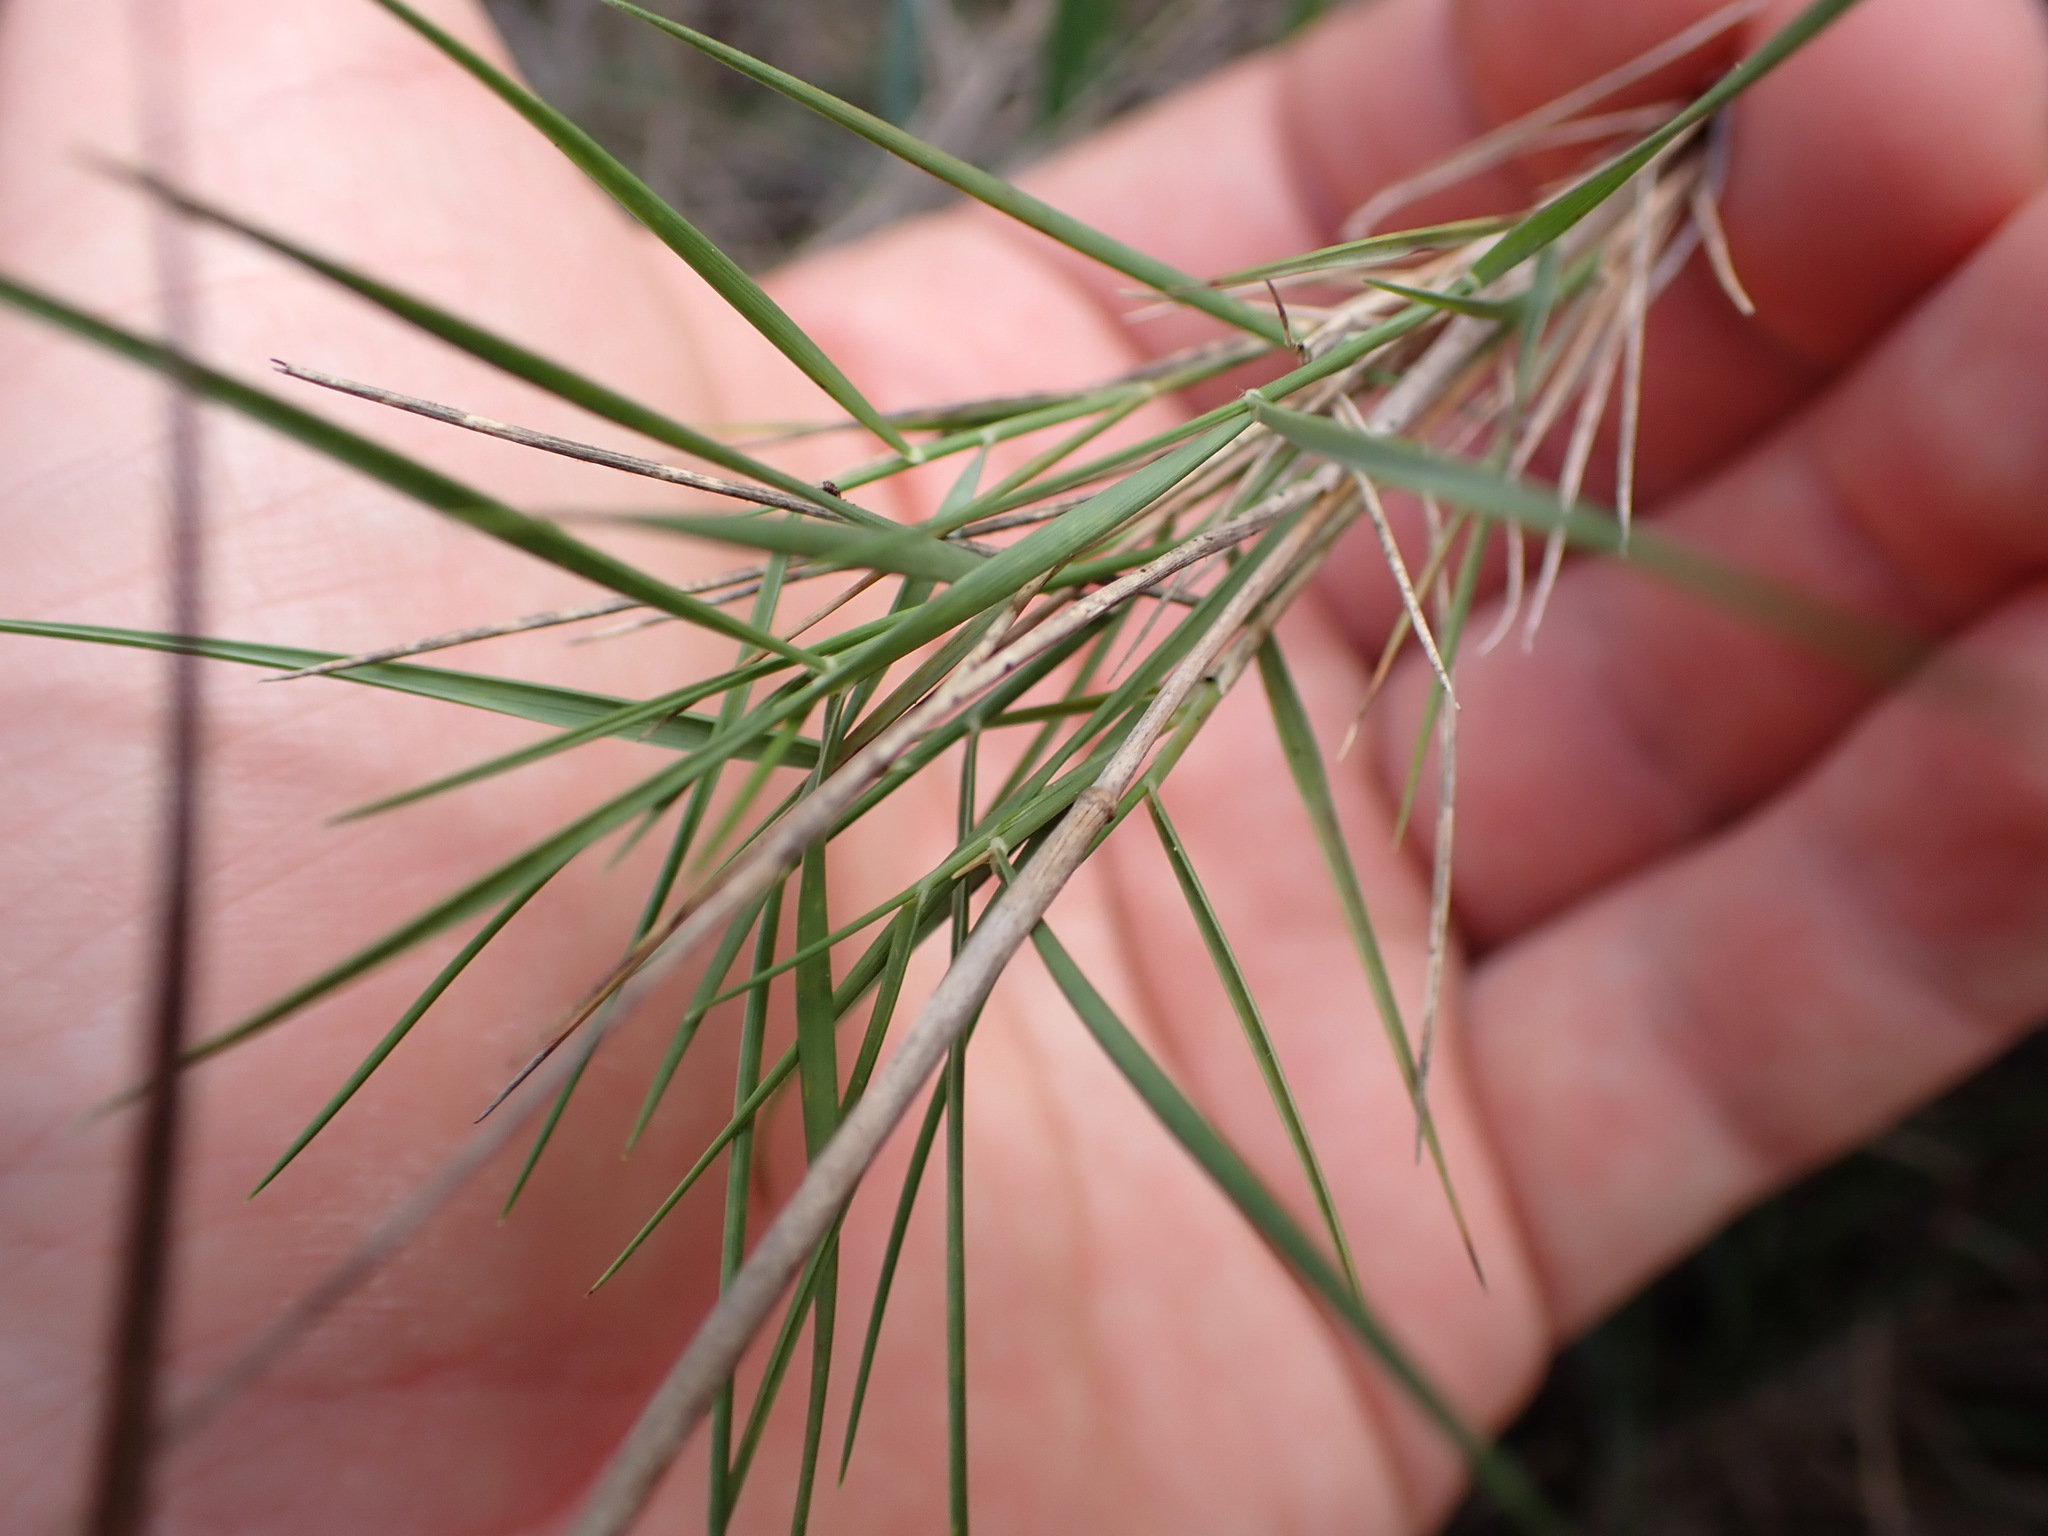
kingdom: Plantae
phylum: Tracheophyta
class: Liliopsida
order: Poales
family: Poaceae
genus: Brachypodium
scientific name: Brachypodium retusum
